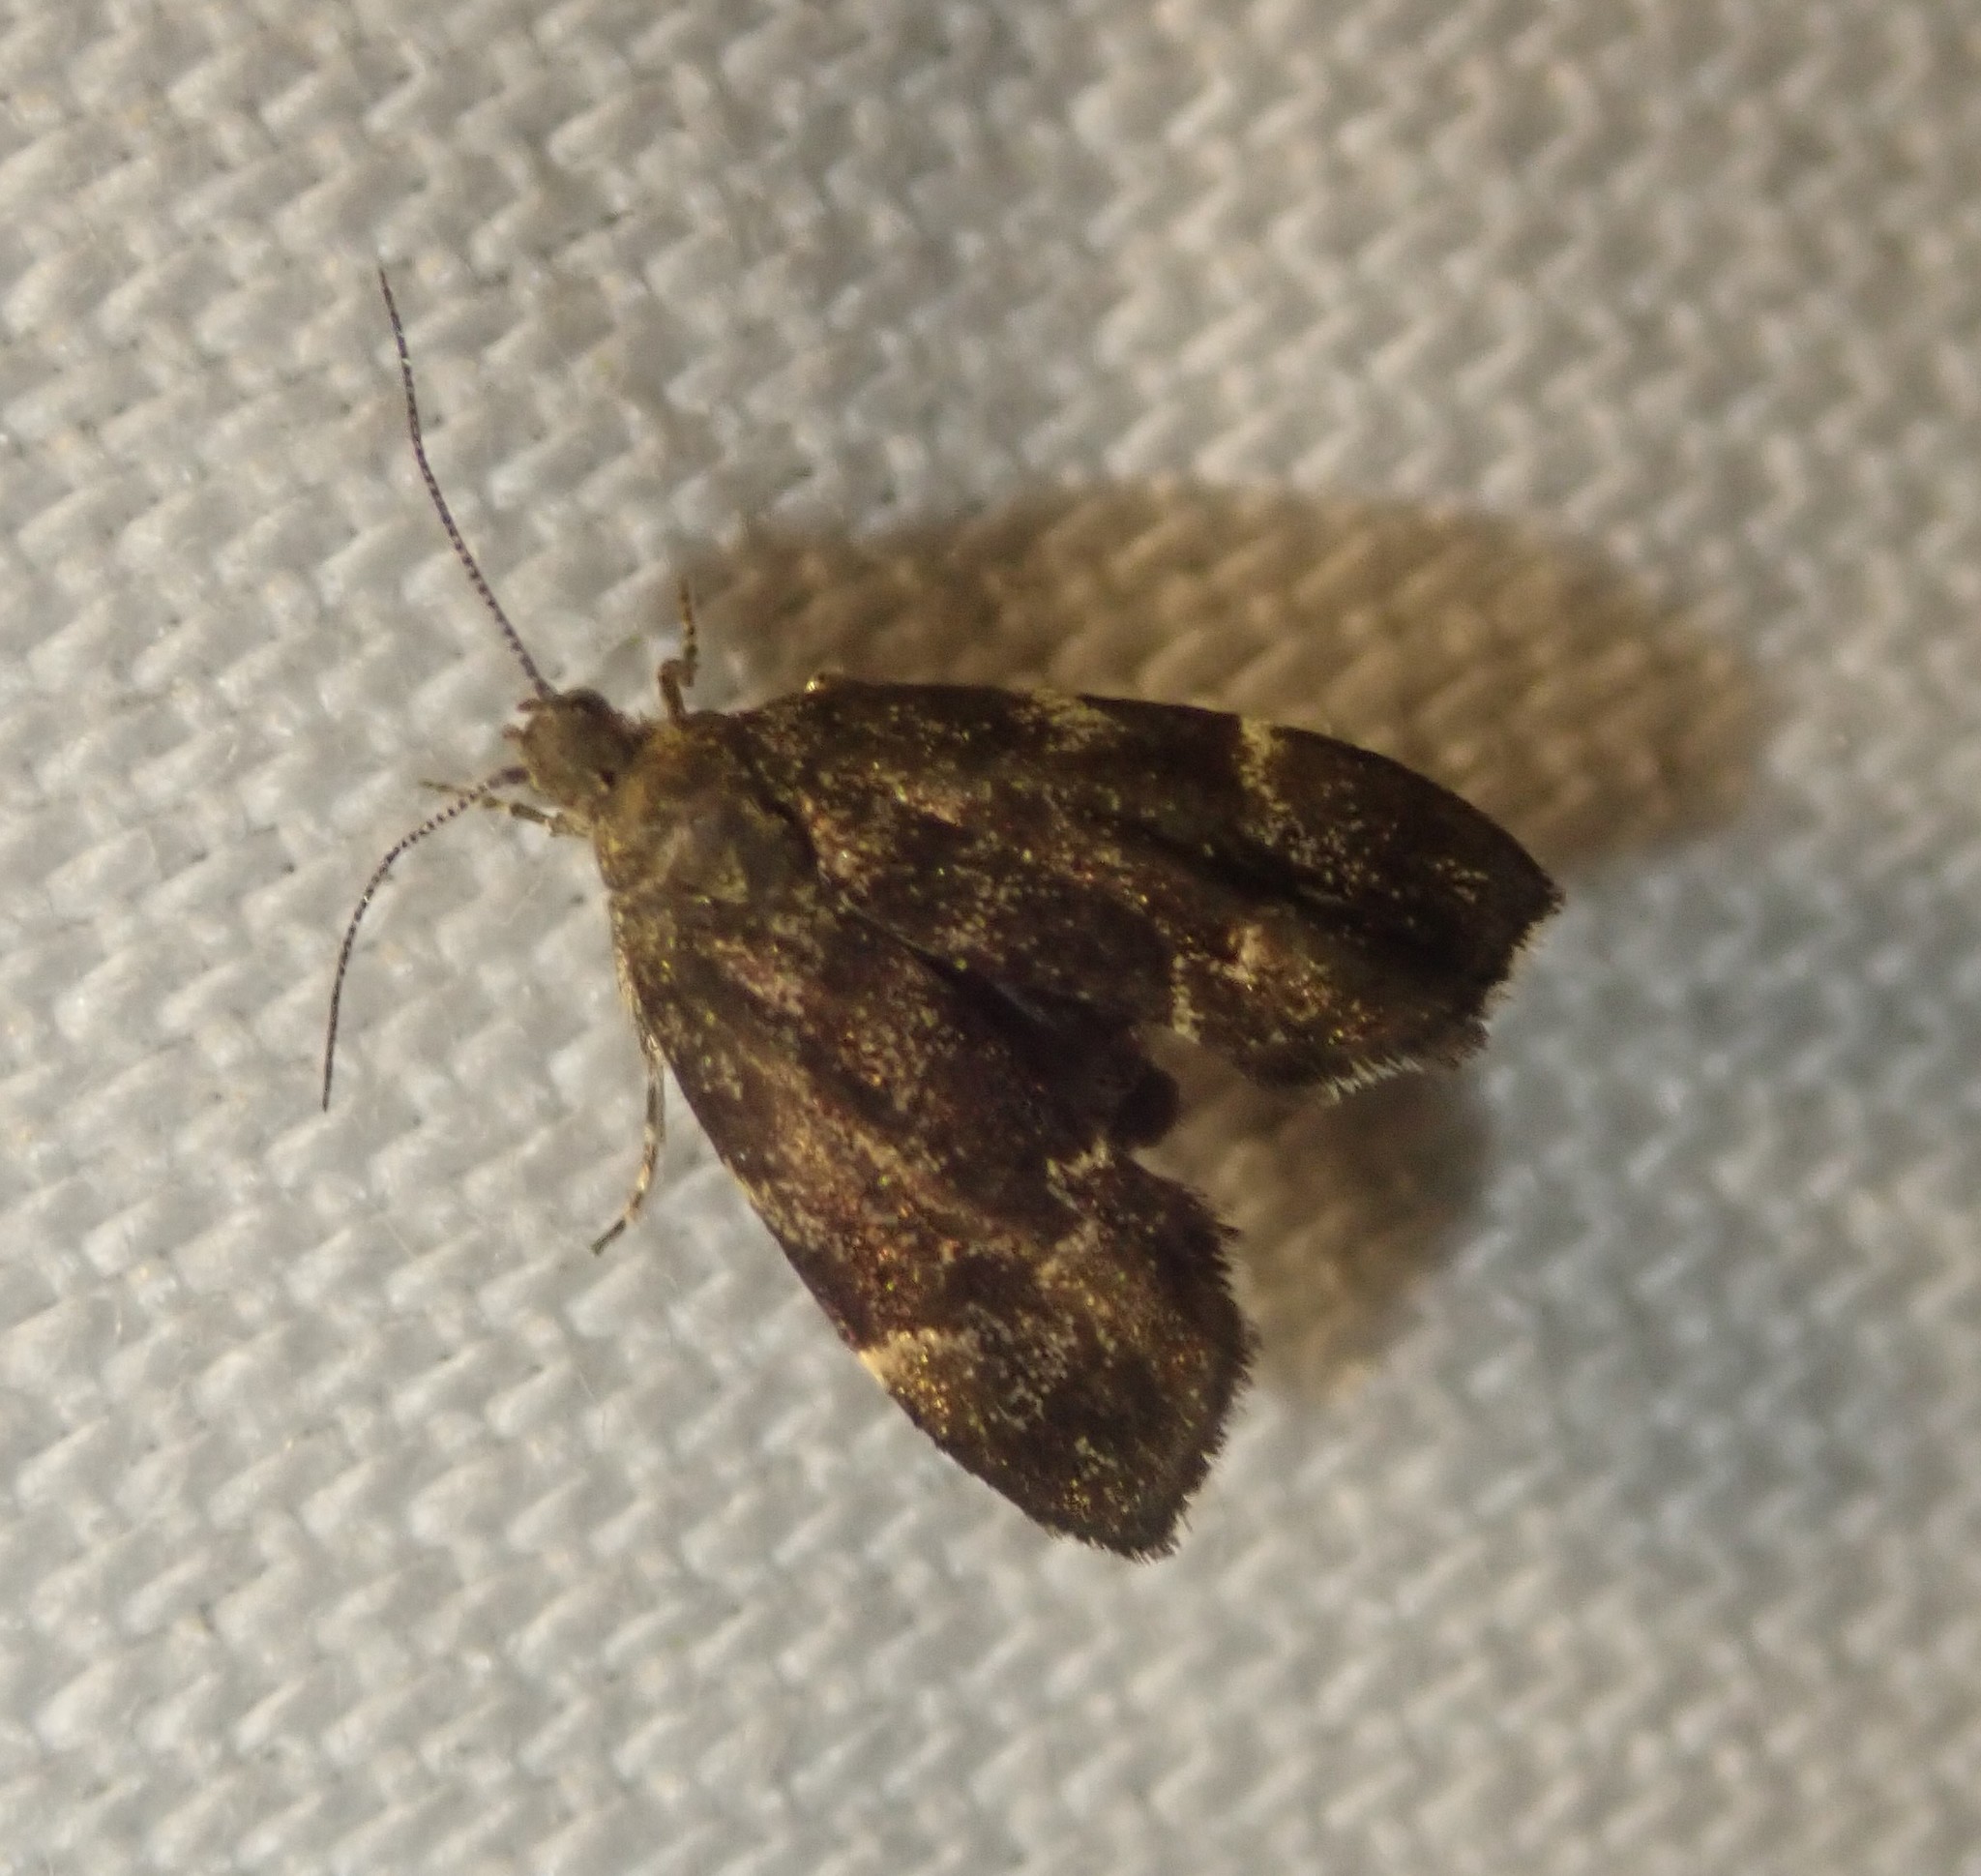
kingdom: Animalia
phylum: Arthropoda
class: Insecta
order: Lepidoptera
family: Choreutidae
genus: Anthophila
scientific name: Anthophila fabriciana
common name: Nettle-tap
